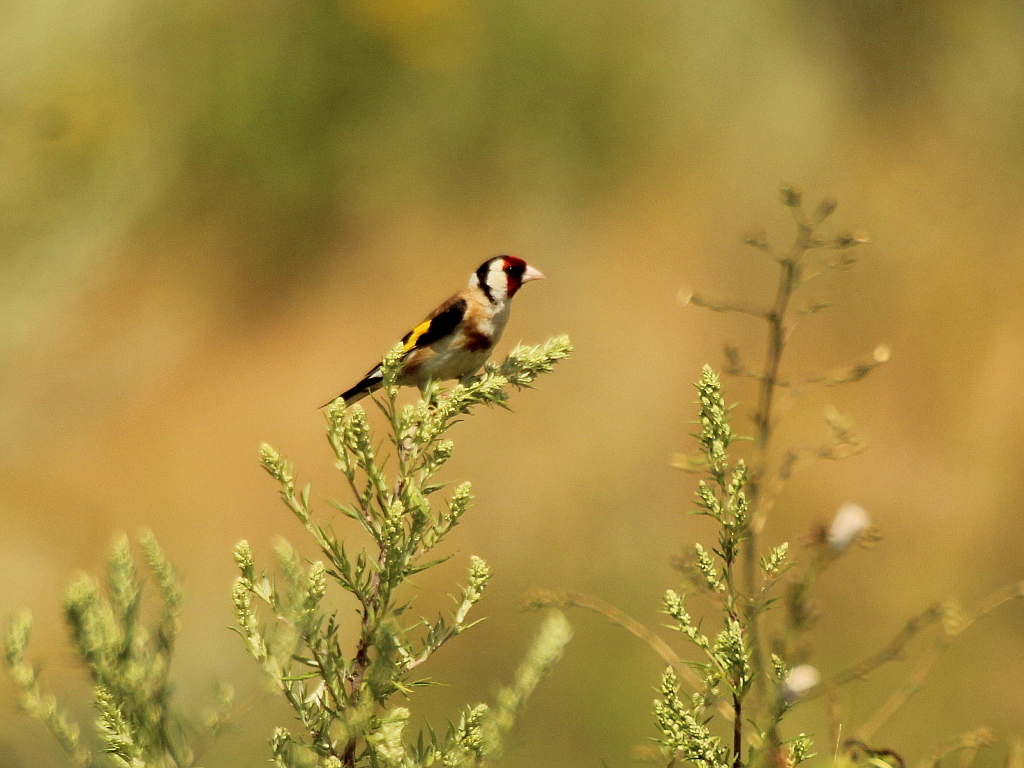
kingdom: Animalia
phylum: Chordata
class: Aves
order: Passeriformes
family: Fringillidae
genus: Carduelis
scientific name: Carduelis carduelis
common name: European goldfinch
